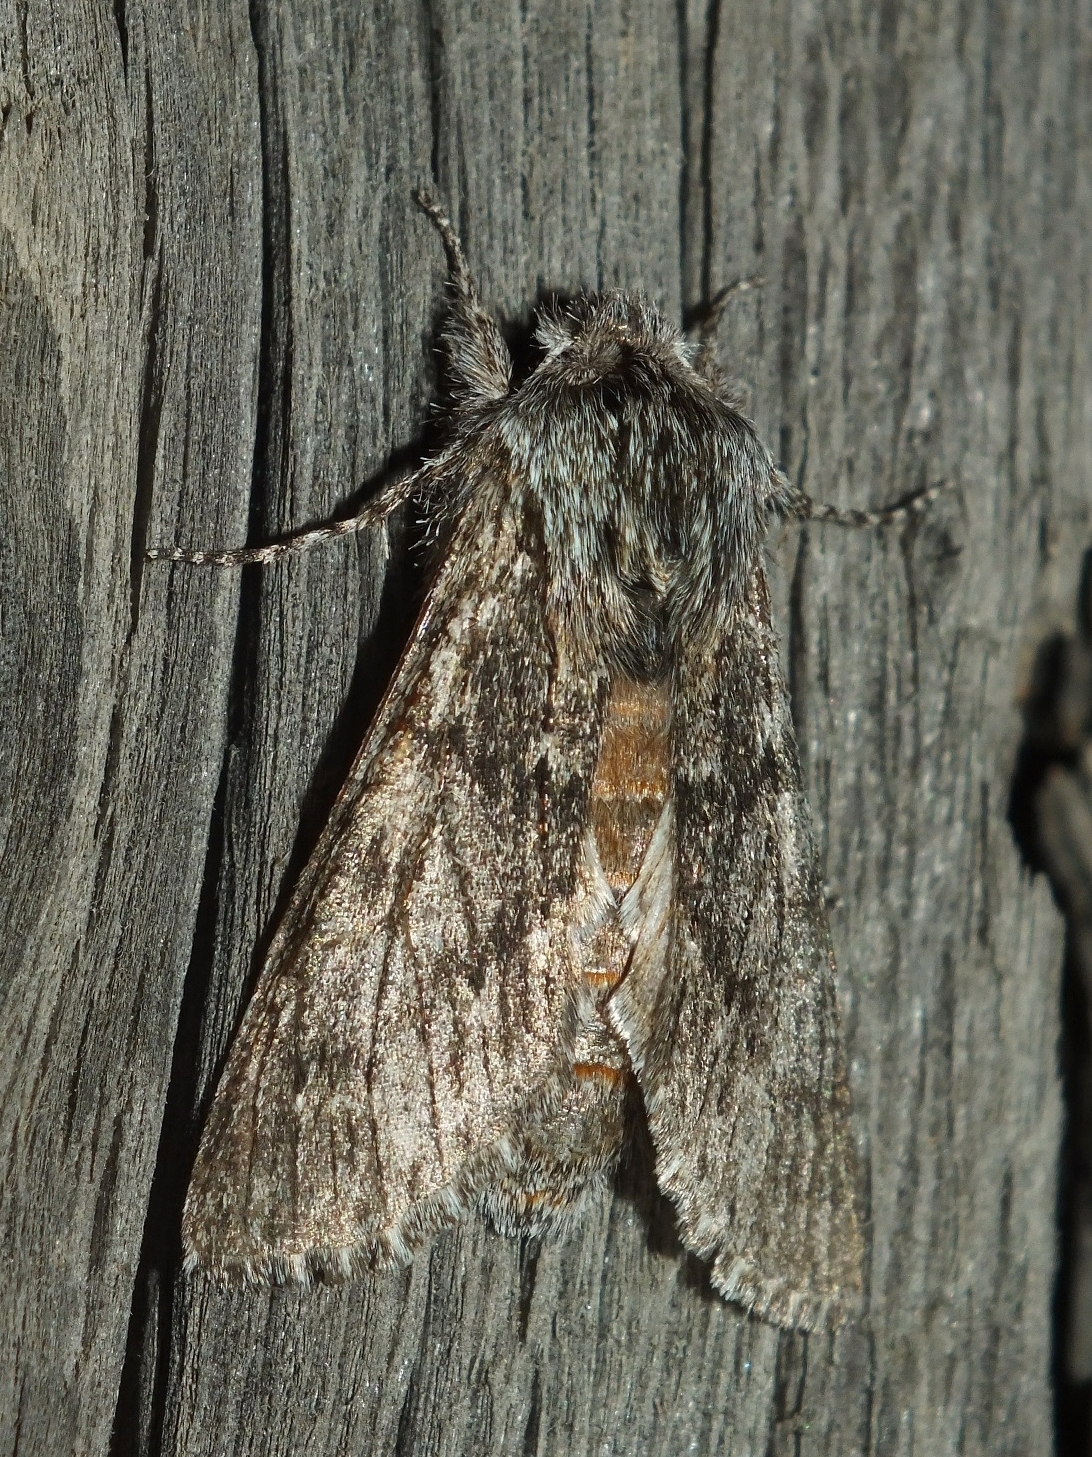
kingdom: Animalia
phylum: Arthropoda
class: Insecta
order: Lepidoptera
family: Notodontidae
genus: Dicranura
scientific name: Dicranura ulmi
